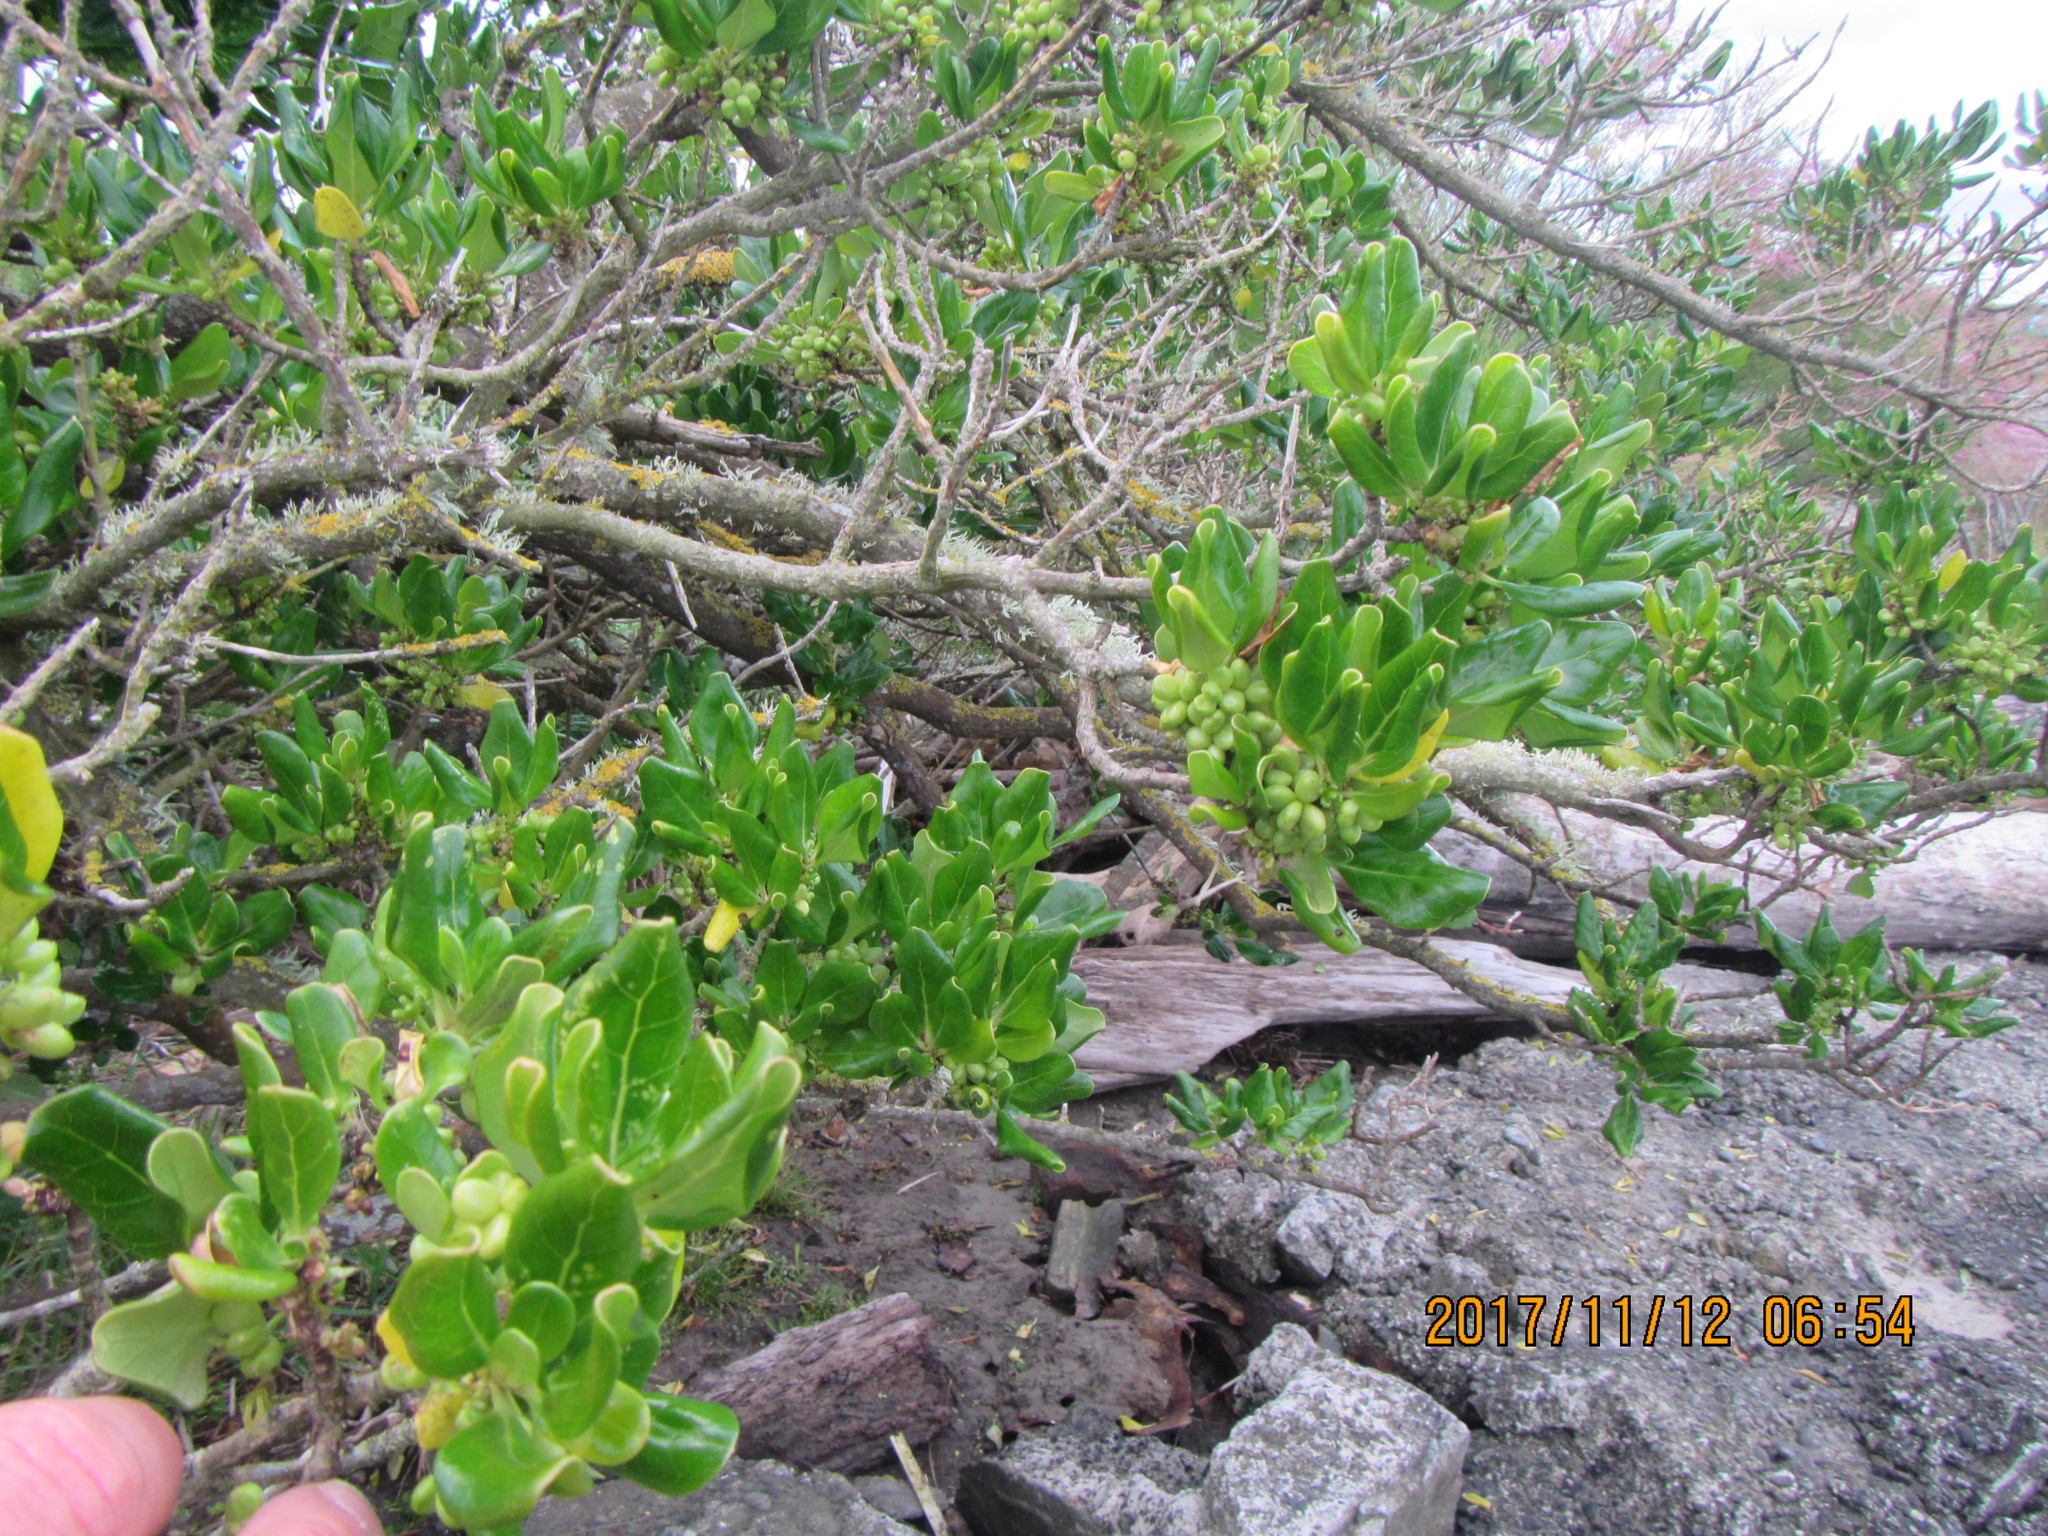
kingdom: Plantae
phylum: Tracheophyta
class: Magnoliopsida
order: Gentianales
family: Rubiaceae
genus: Coprosma
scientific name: Coprosma repens
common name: Tree bedstraw
